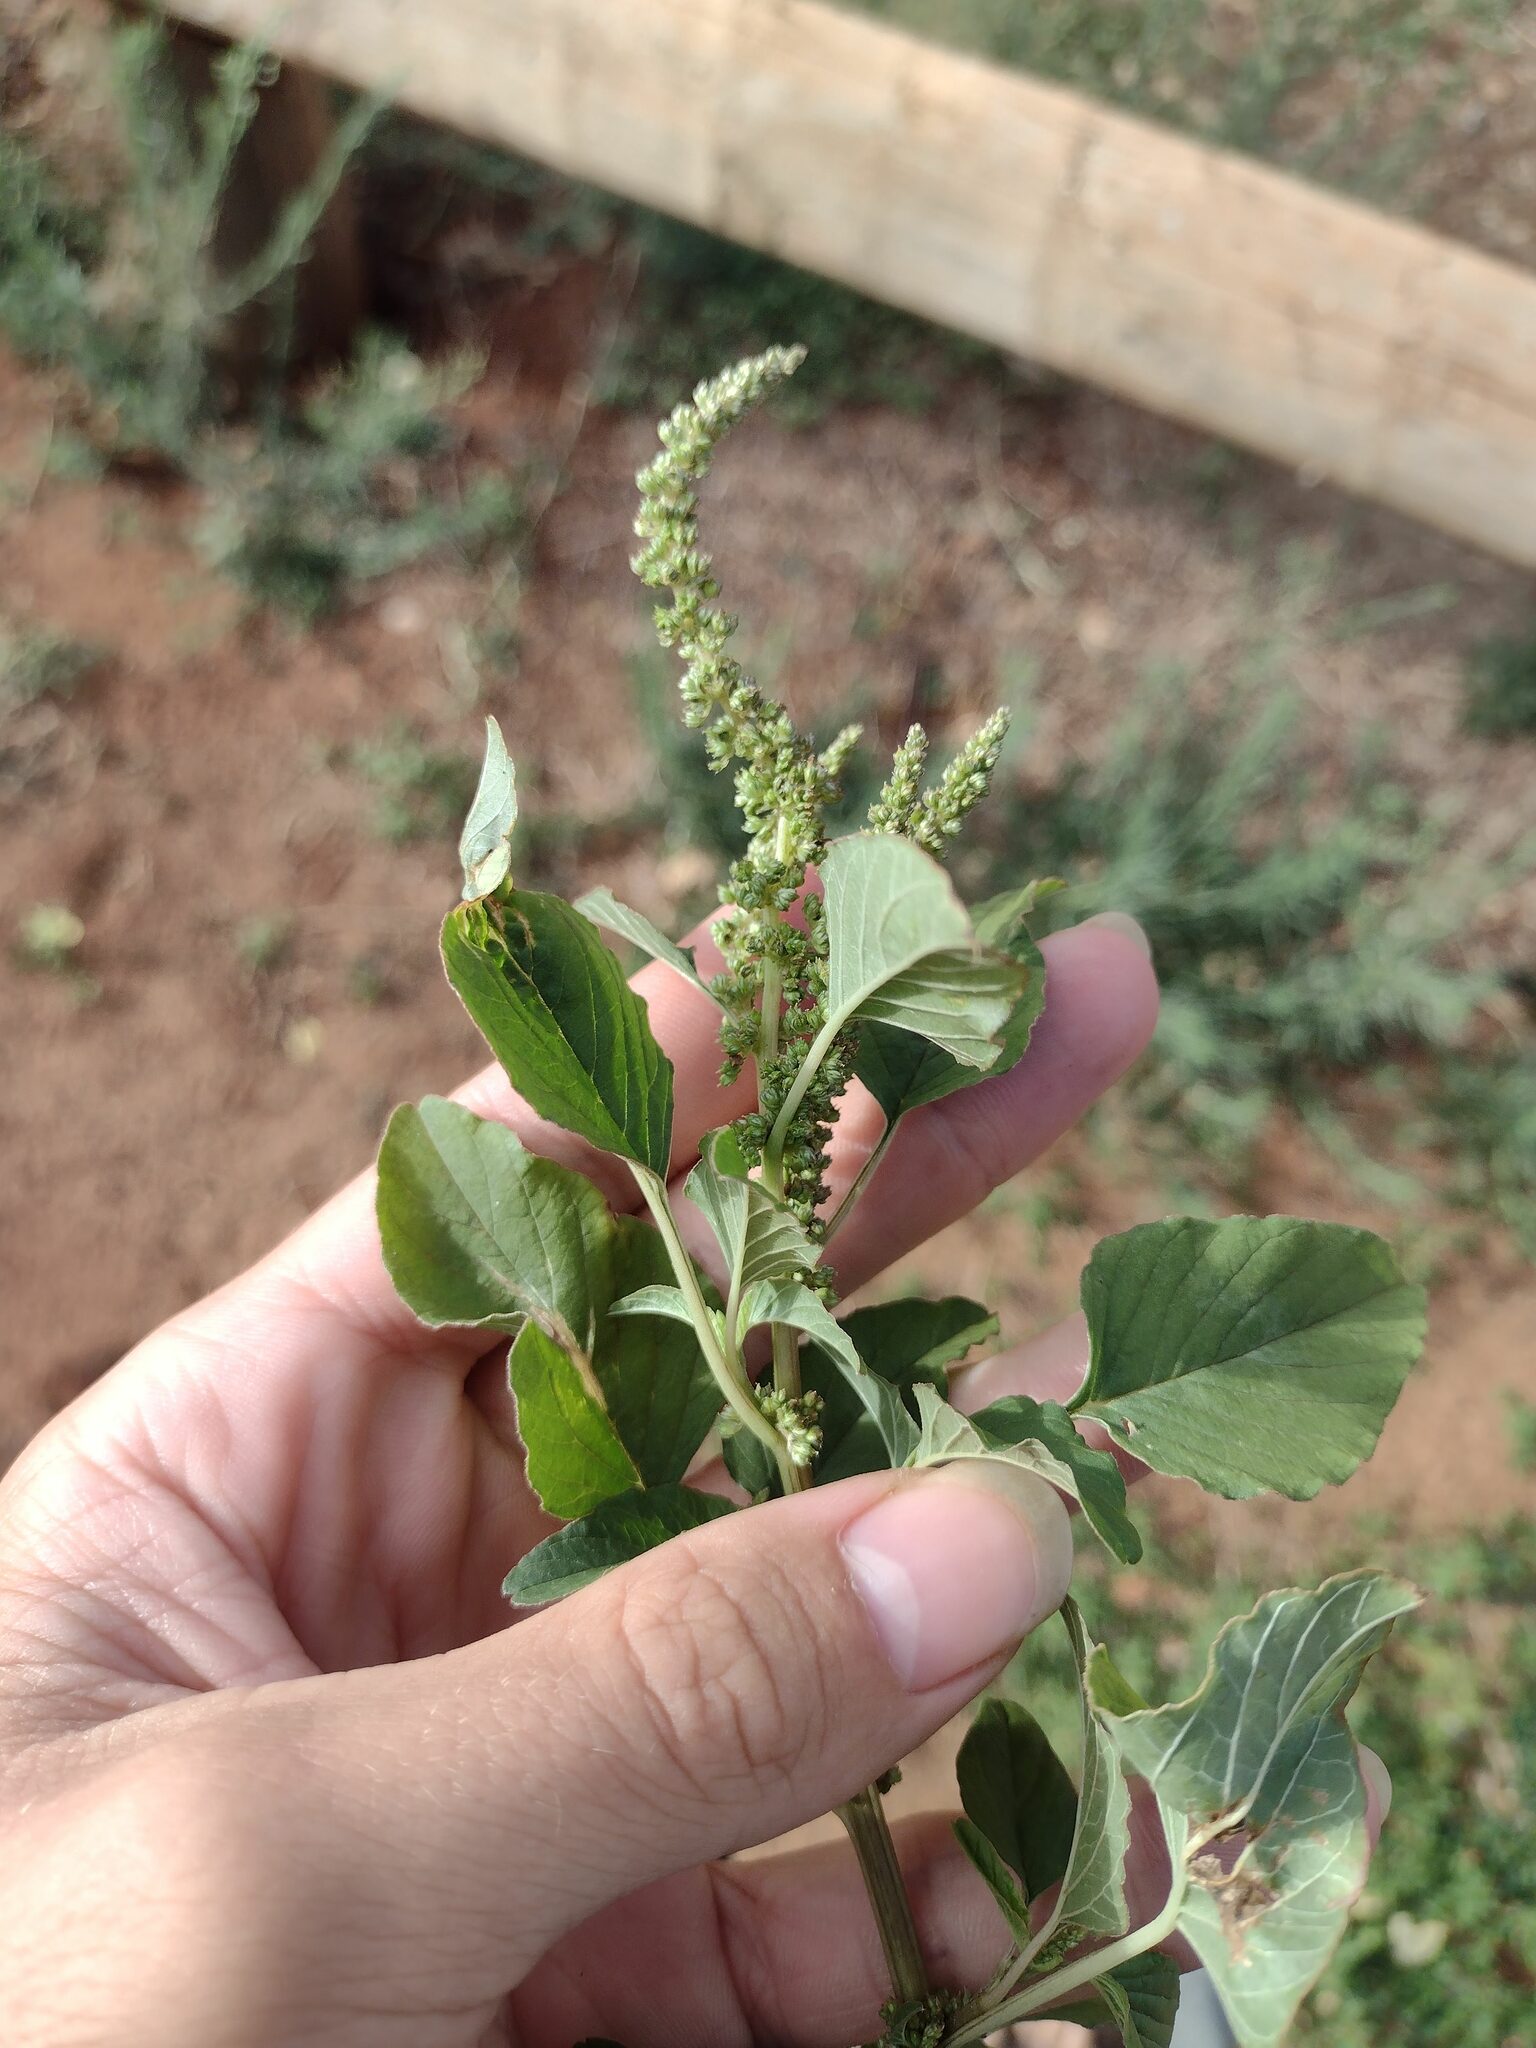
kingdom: Plantae
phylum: Tracheophyta
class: Magnoliopsida
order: Caryophyllales
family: Amaranthaceae
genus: Amaranthus
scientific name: Amaranthus viridis
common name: Slender amaranth
